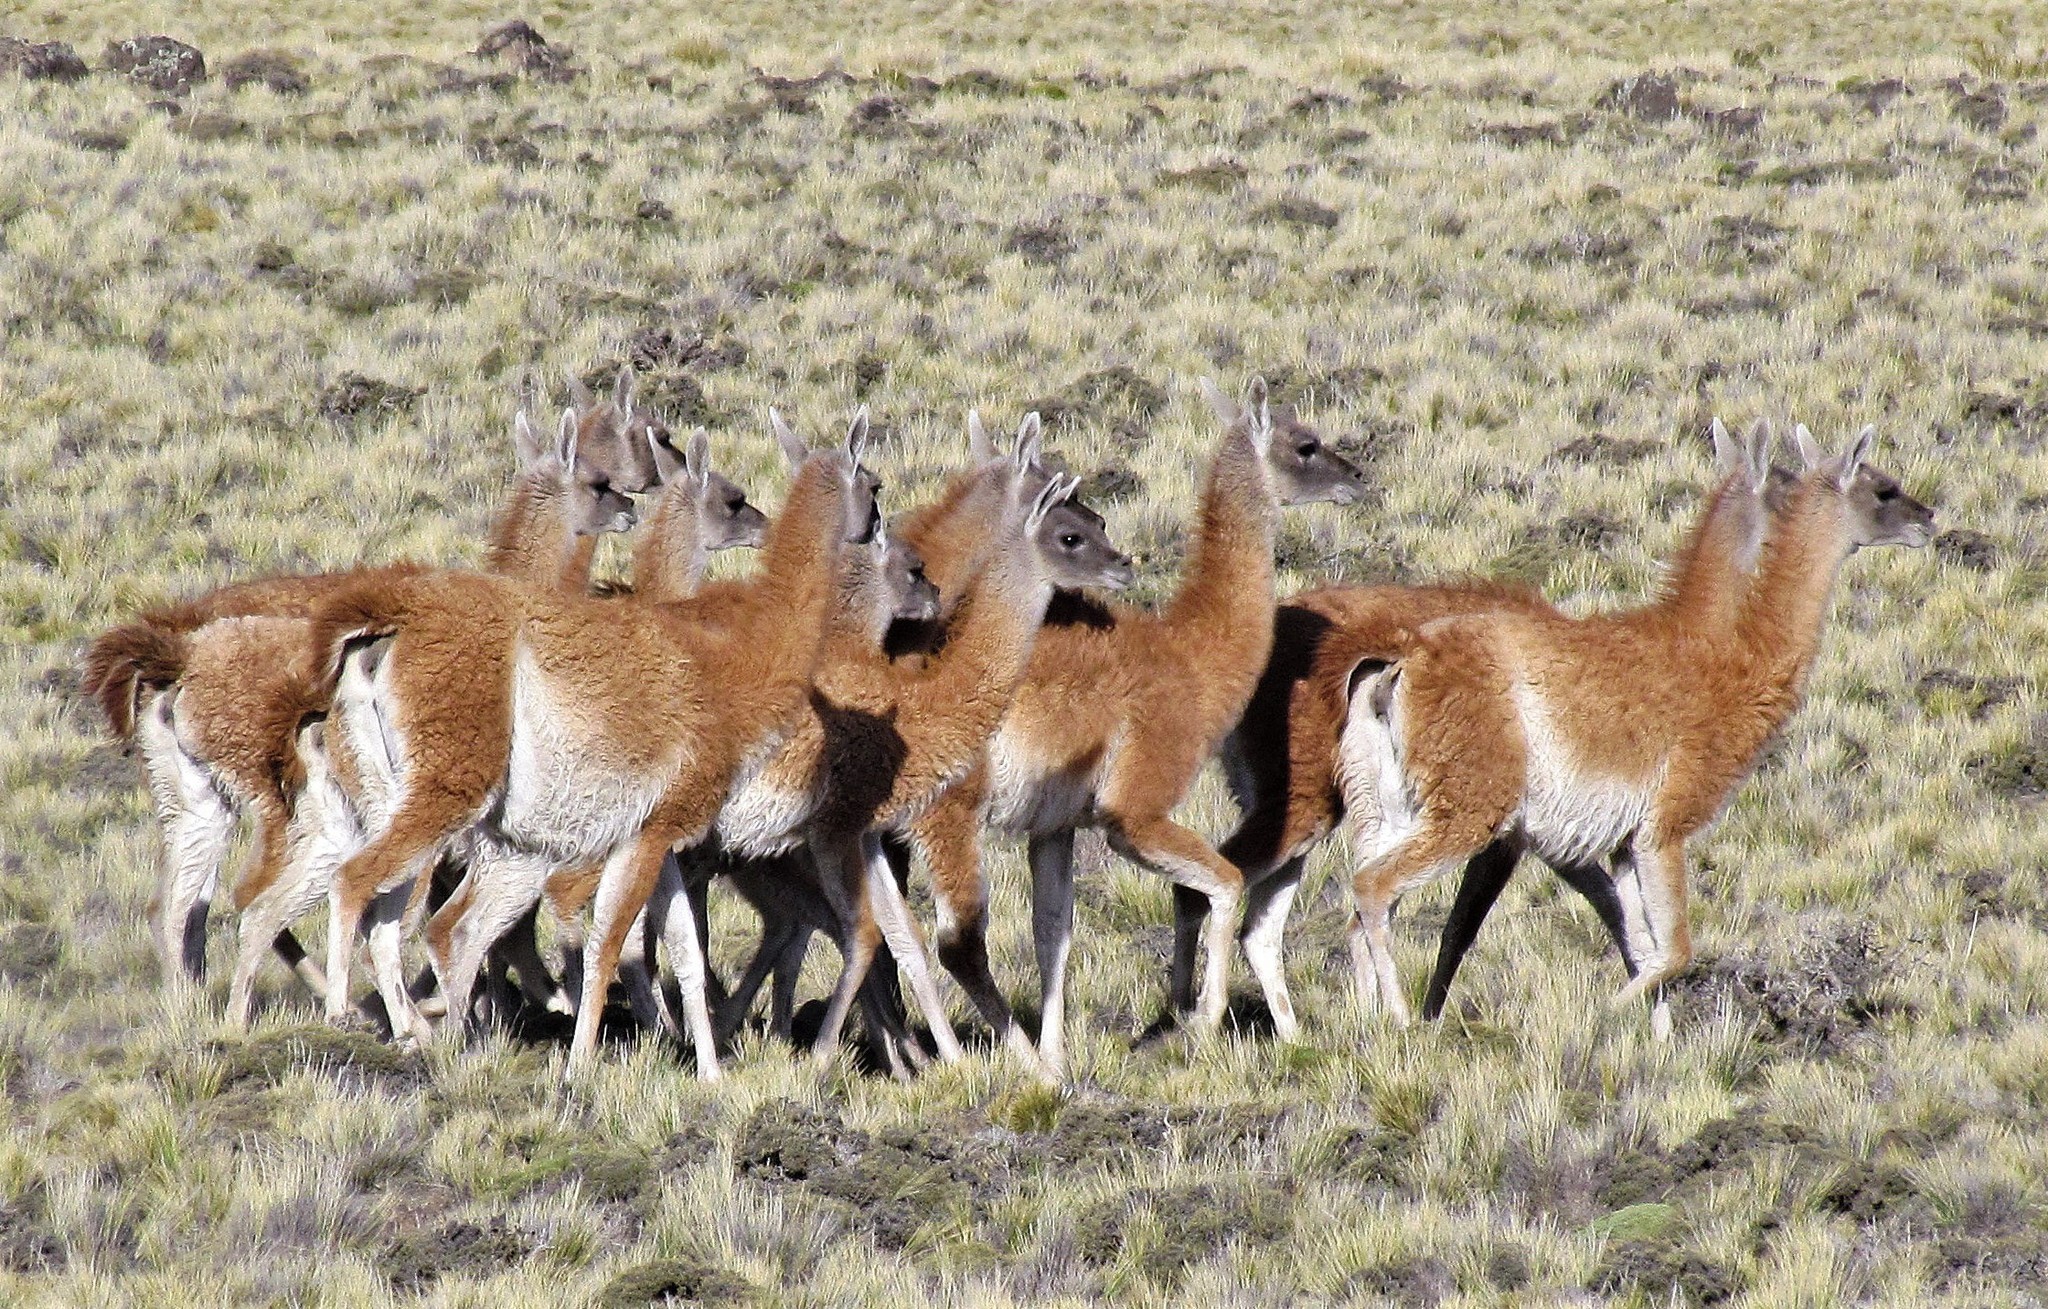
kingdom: Animalia
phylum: Chordata
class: Mammalia
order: Artiodactyla
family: Camelidae
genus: Lama
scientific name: Lama glama
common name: Llama
